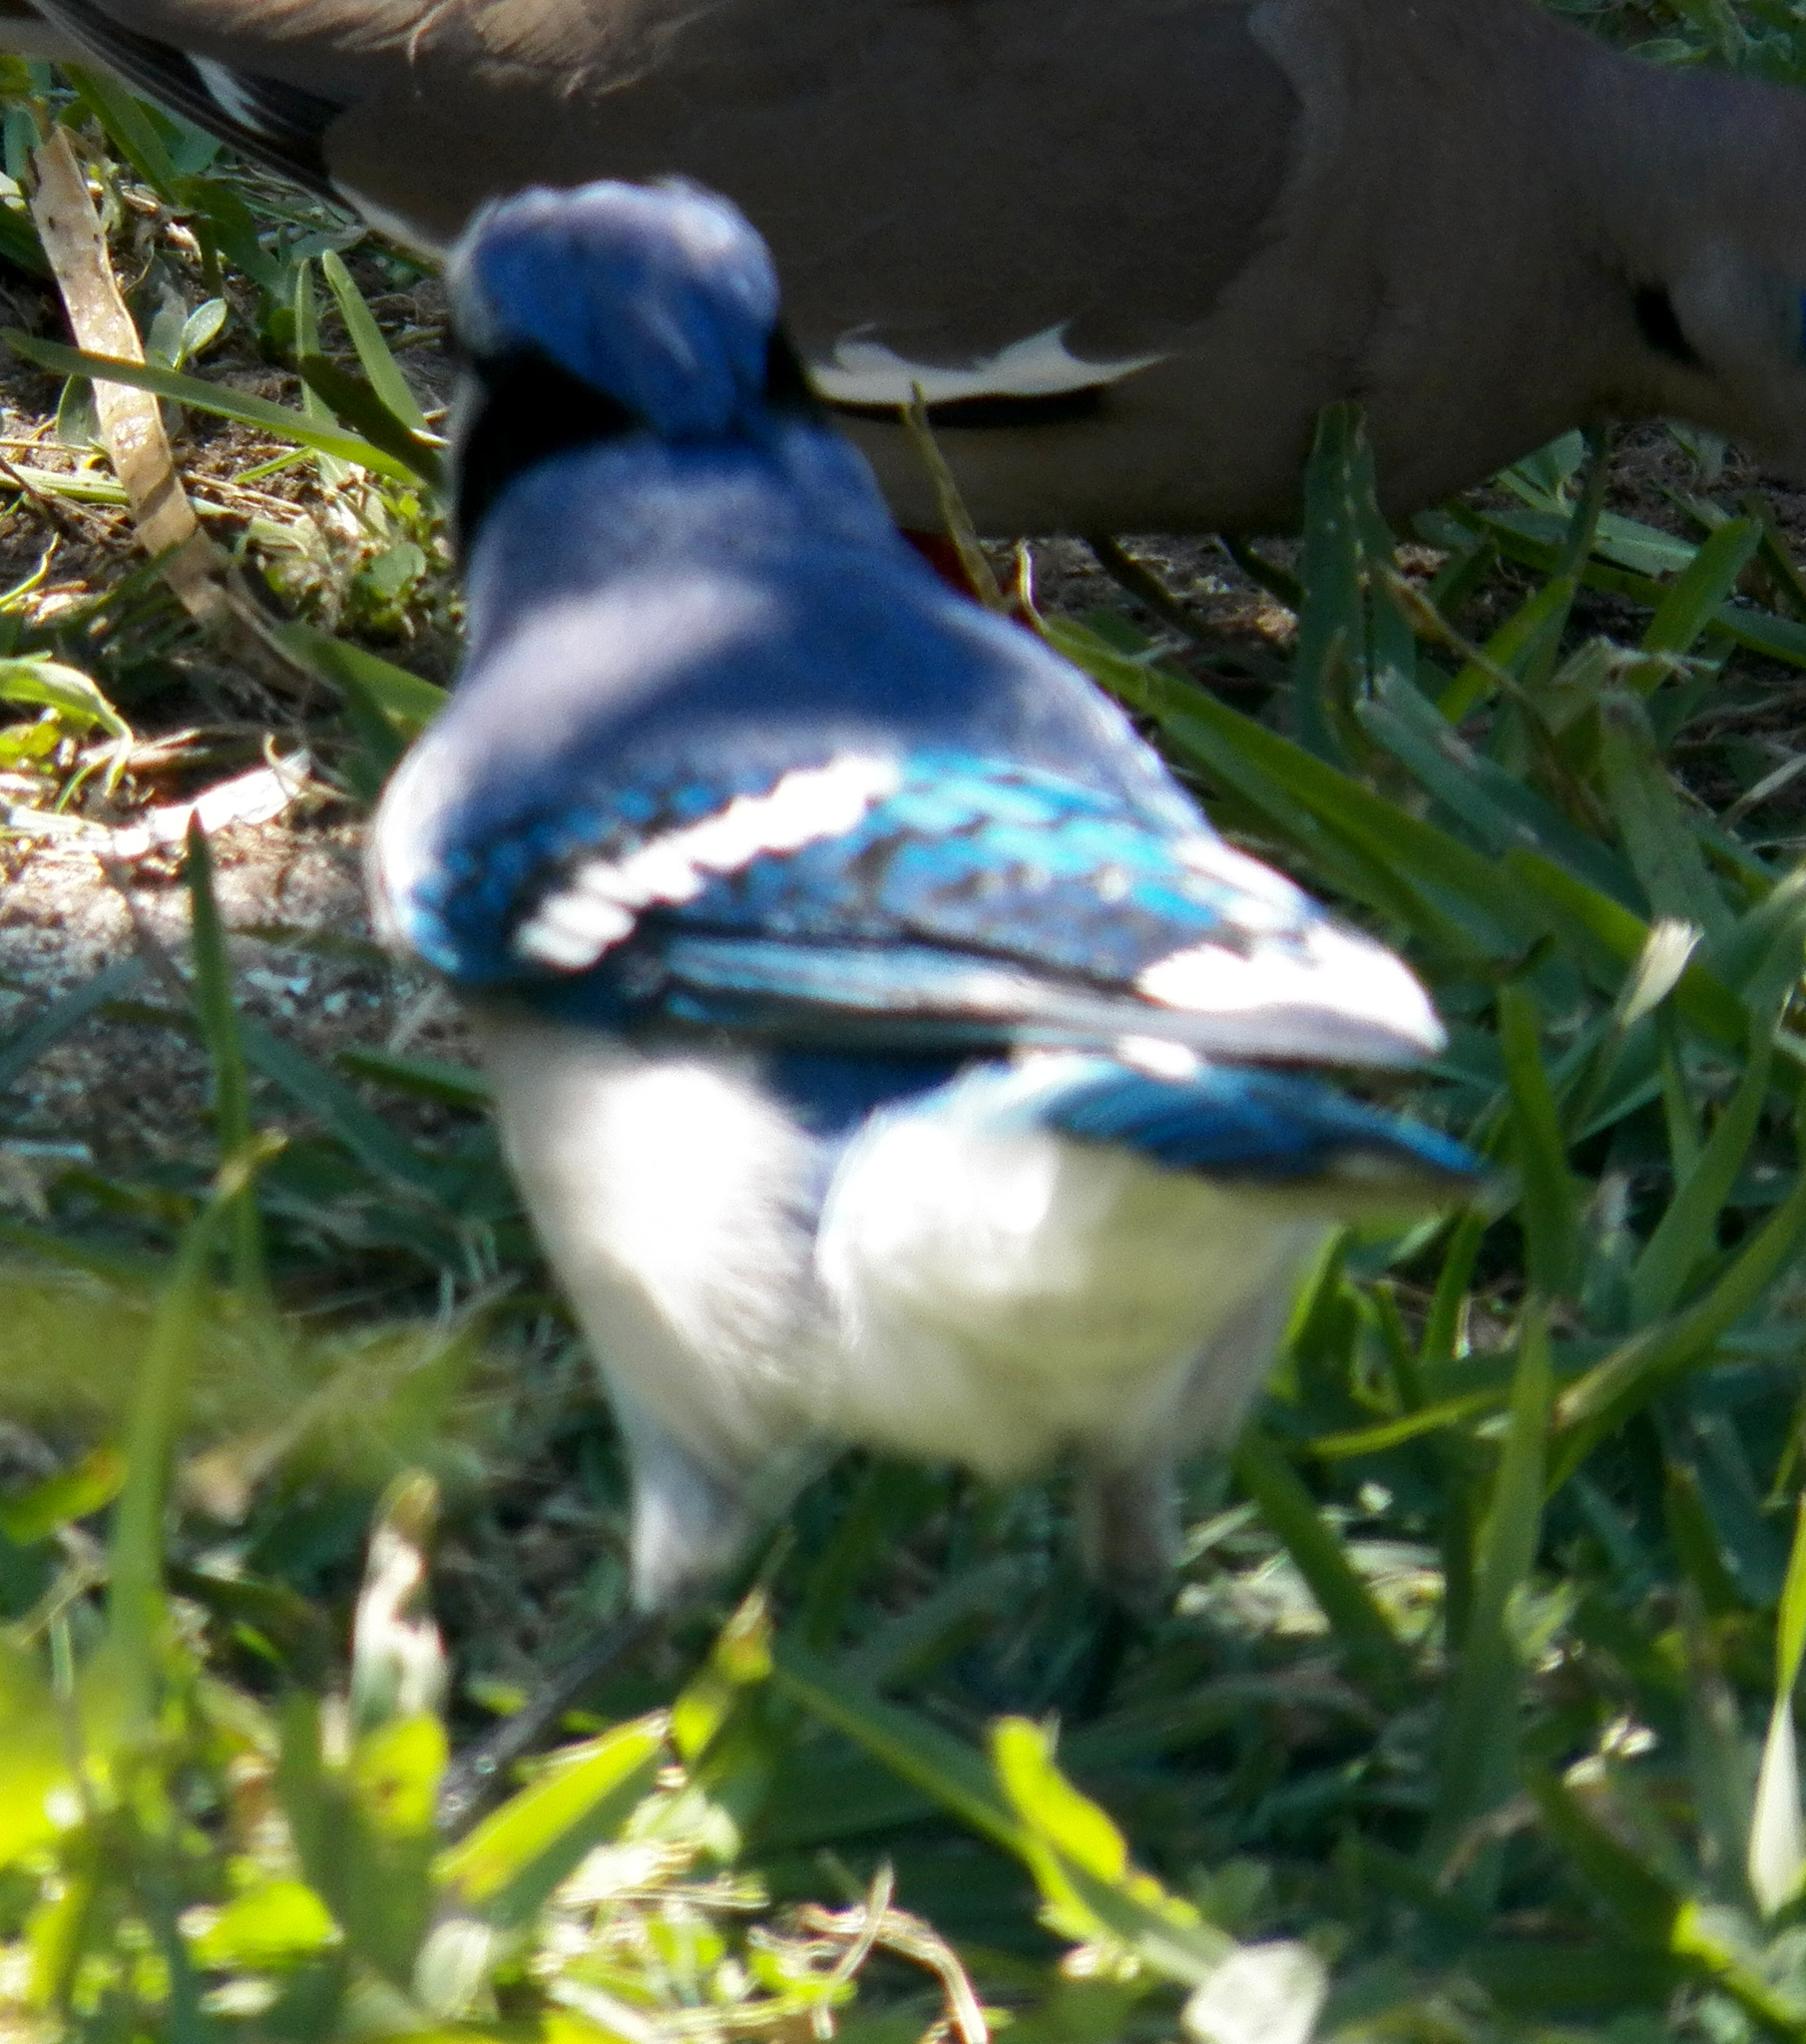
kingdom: Animalia
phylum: Chordata
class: Aves
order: Passeriformes
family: Corvidae
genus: Cyanocitta
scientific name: Cyanocitta cristata
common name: Blue jay
